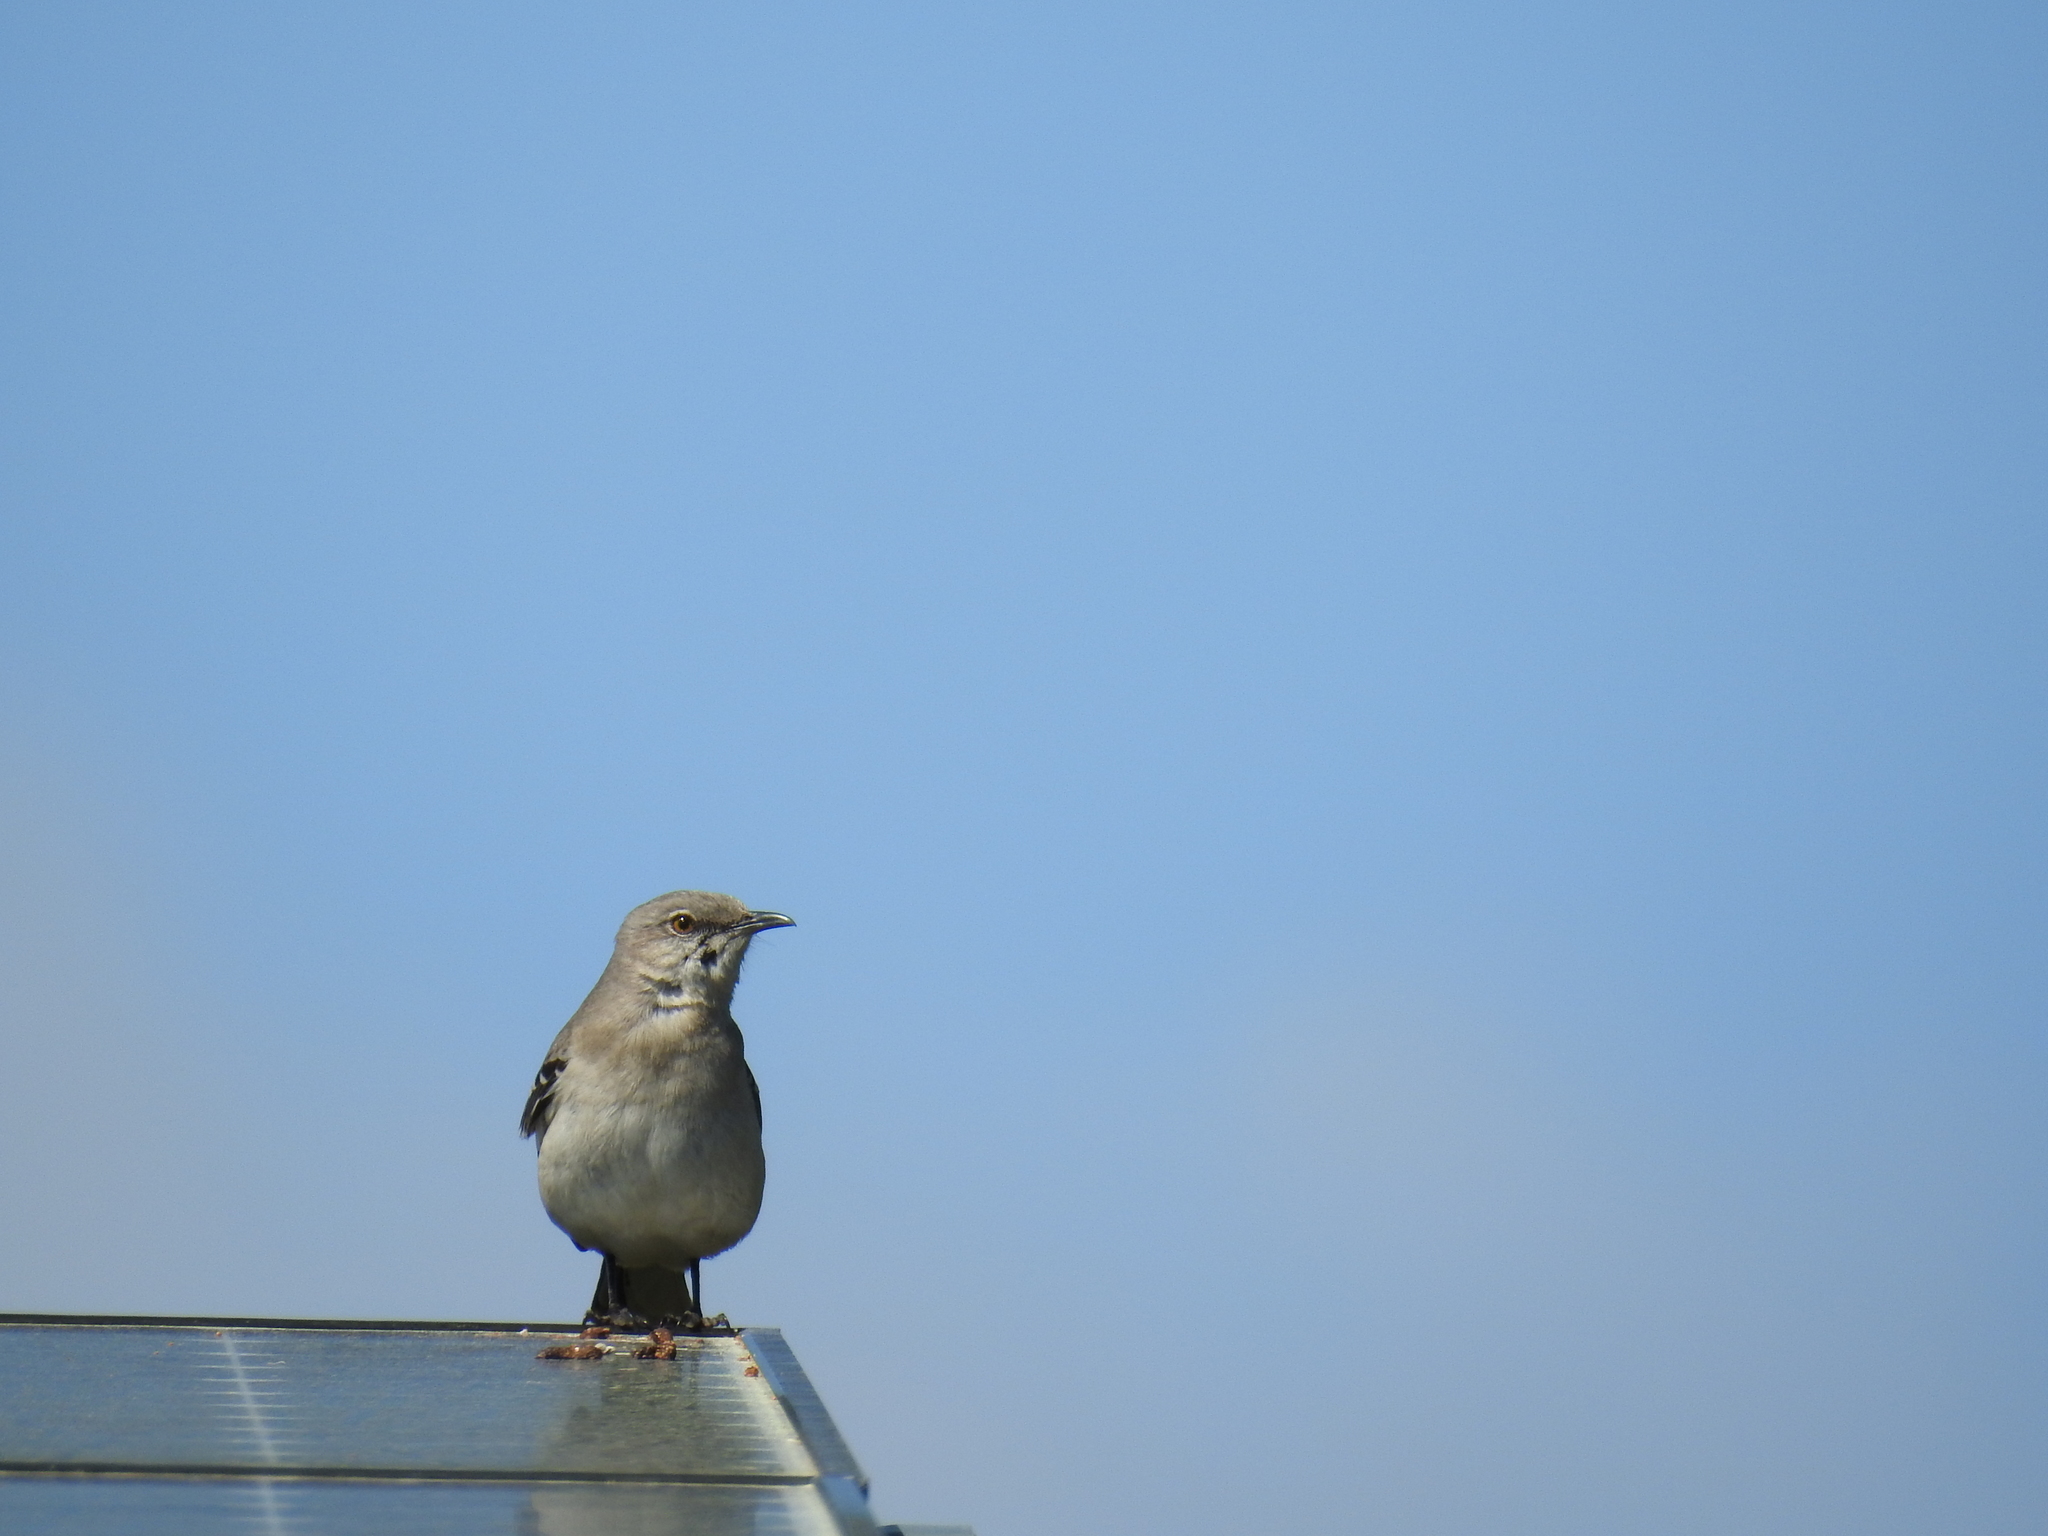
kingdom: Animalia
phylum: Chordata
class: Aves
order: Passeriformes
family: Mimidae
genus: Mimus
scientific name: Mimus polyglottos
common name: Northern mockingbird
